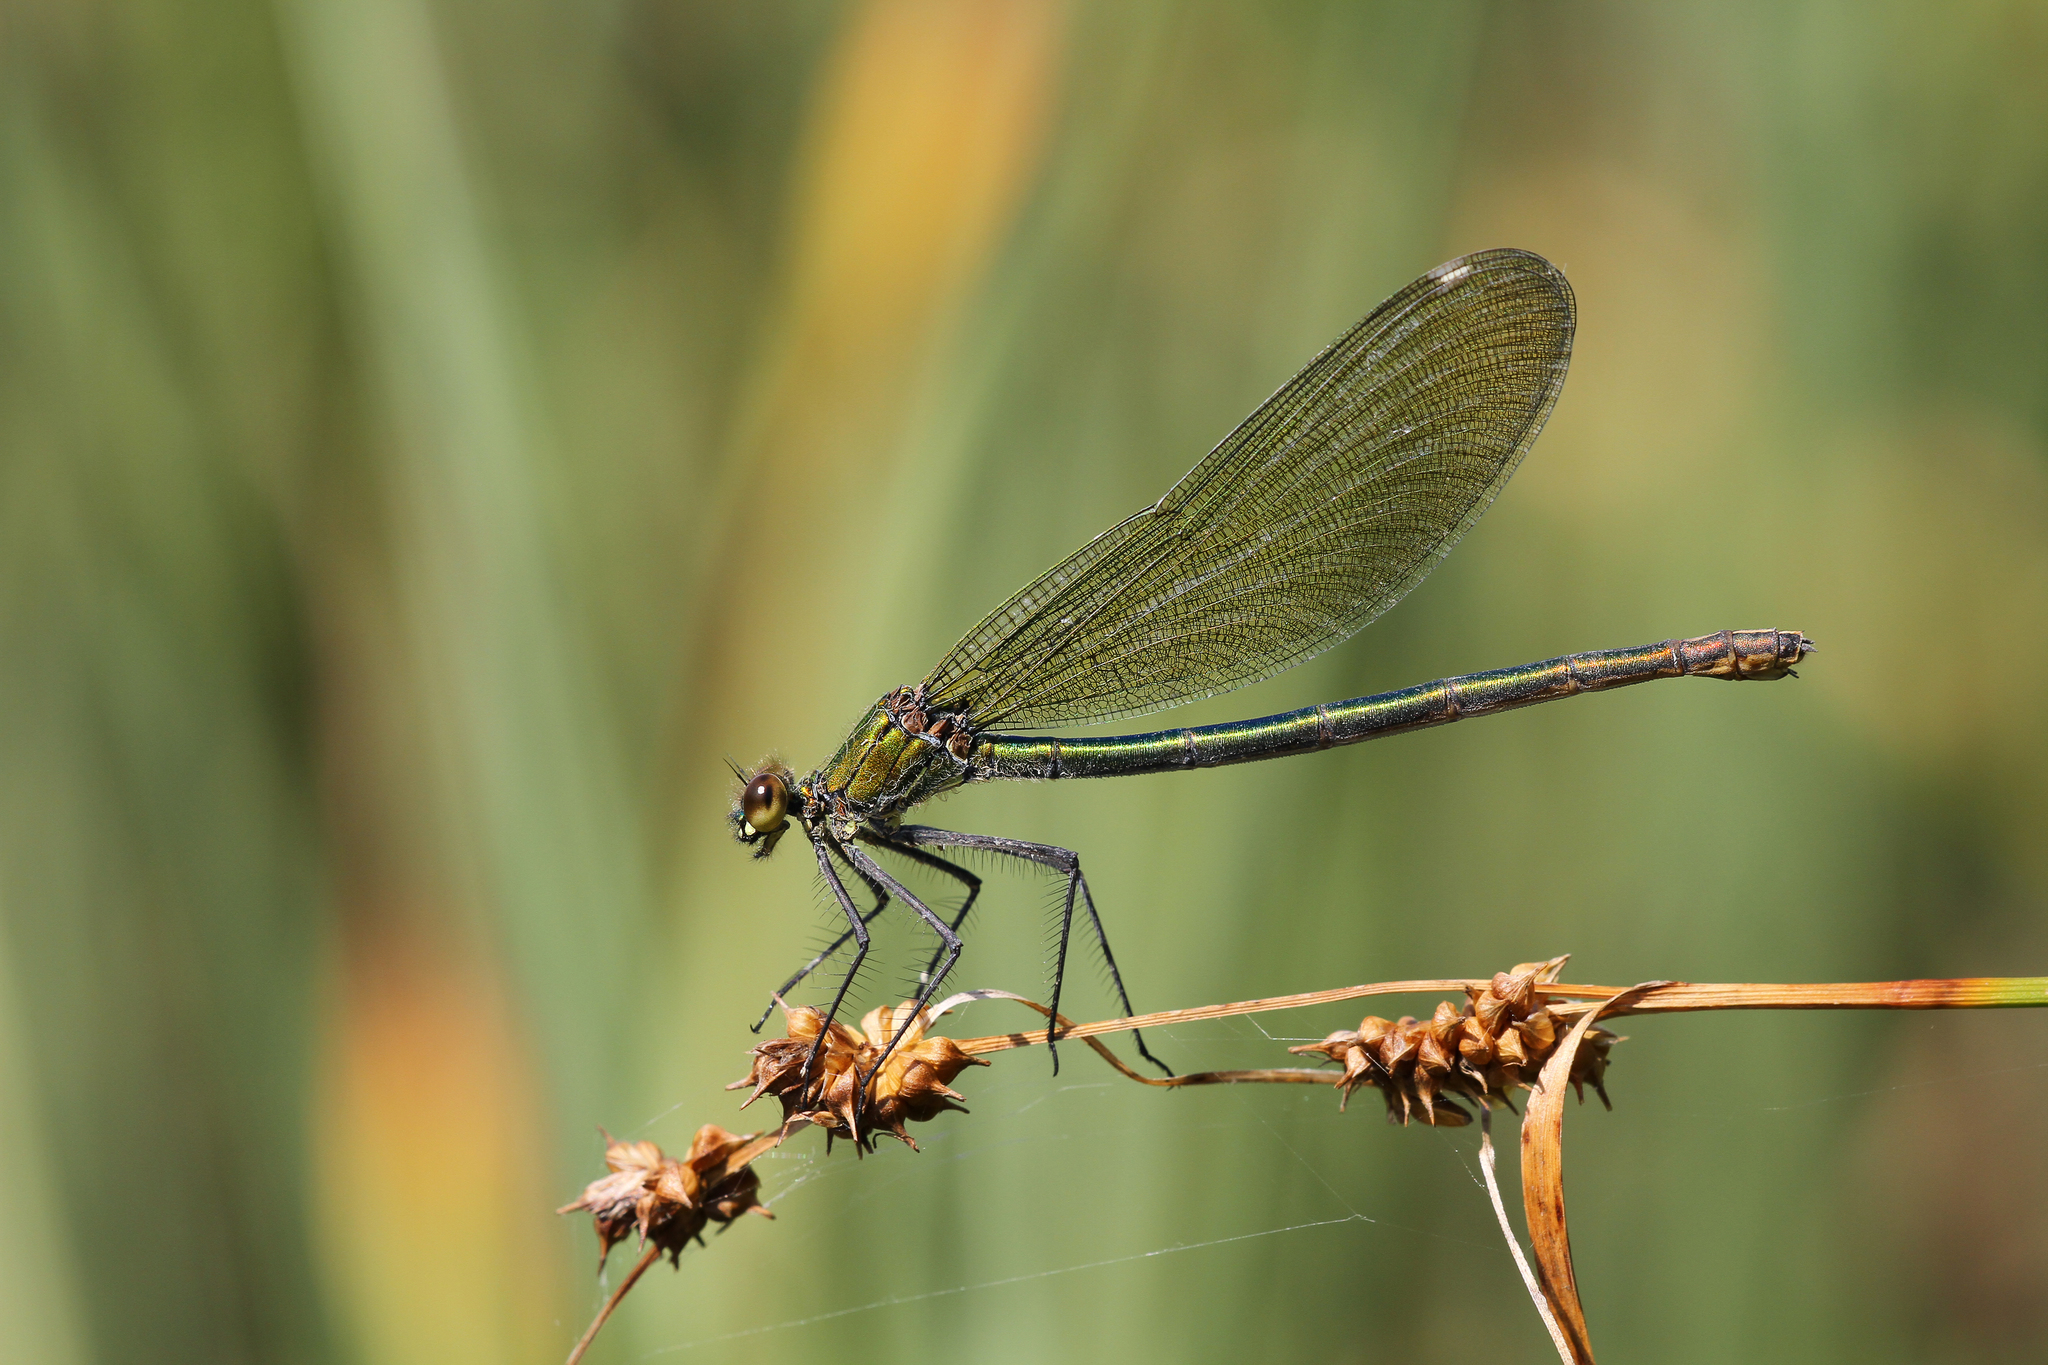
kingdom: Animalia
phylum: Arthropoda
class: Insecta
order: Odonata
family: Calopterygidae
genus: Calopteryx
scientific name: Calopteryx splendens
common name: Banded demoiselle
